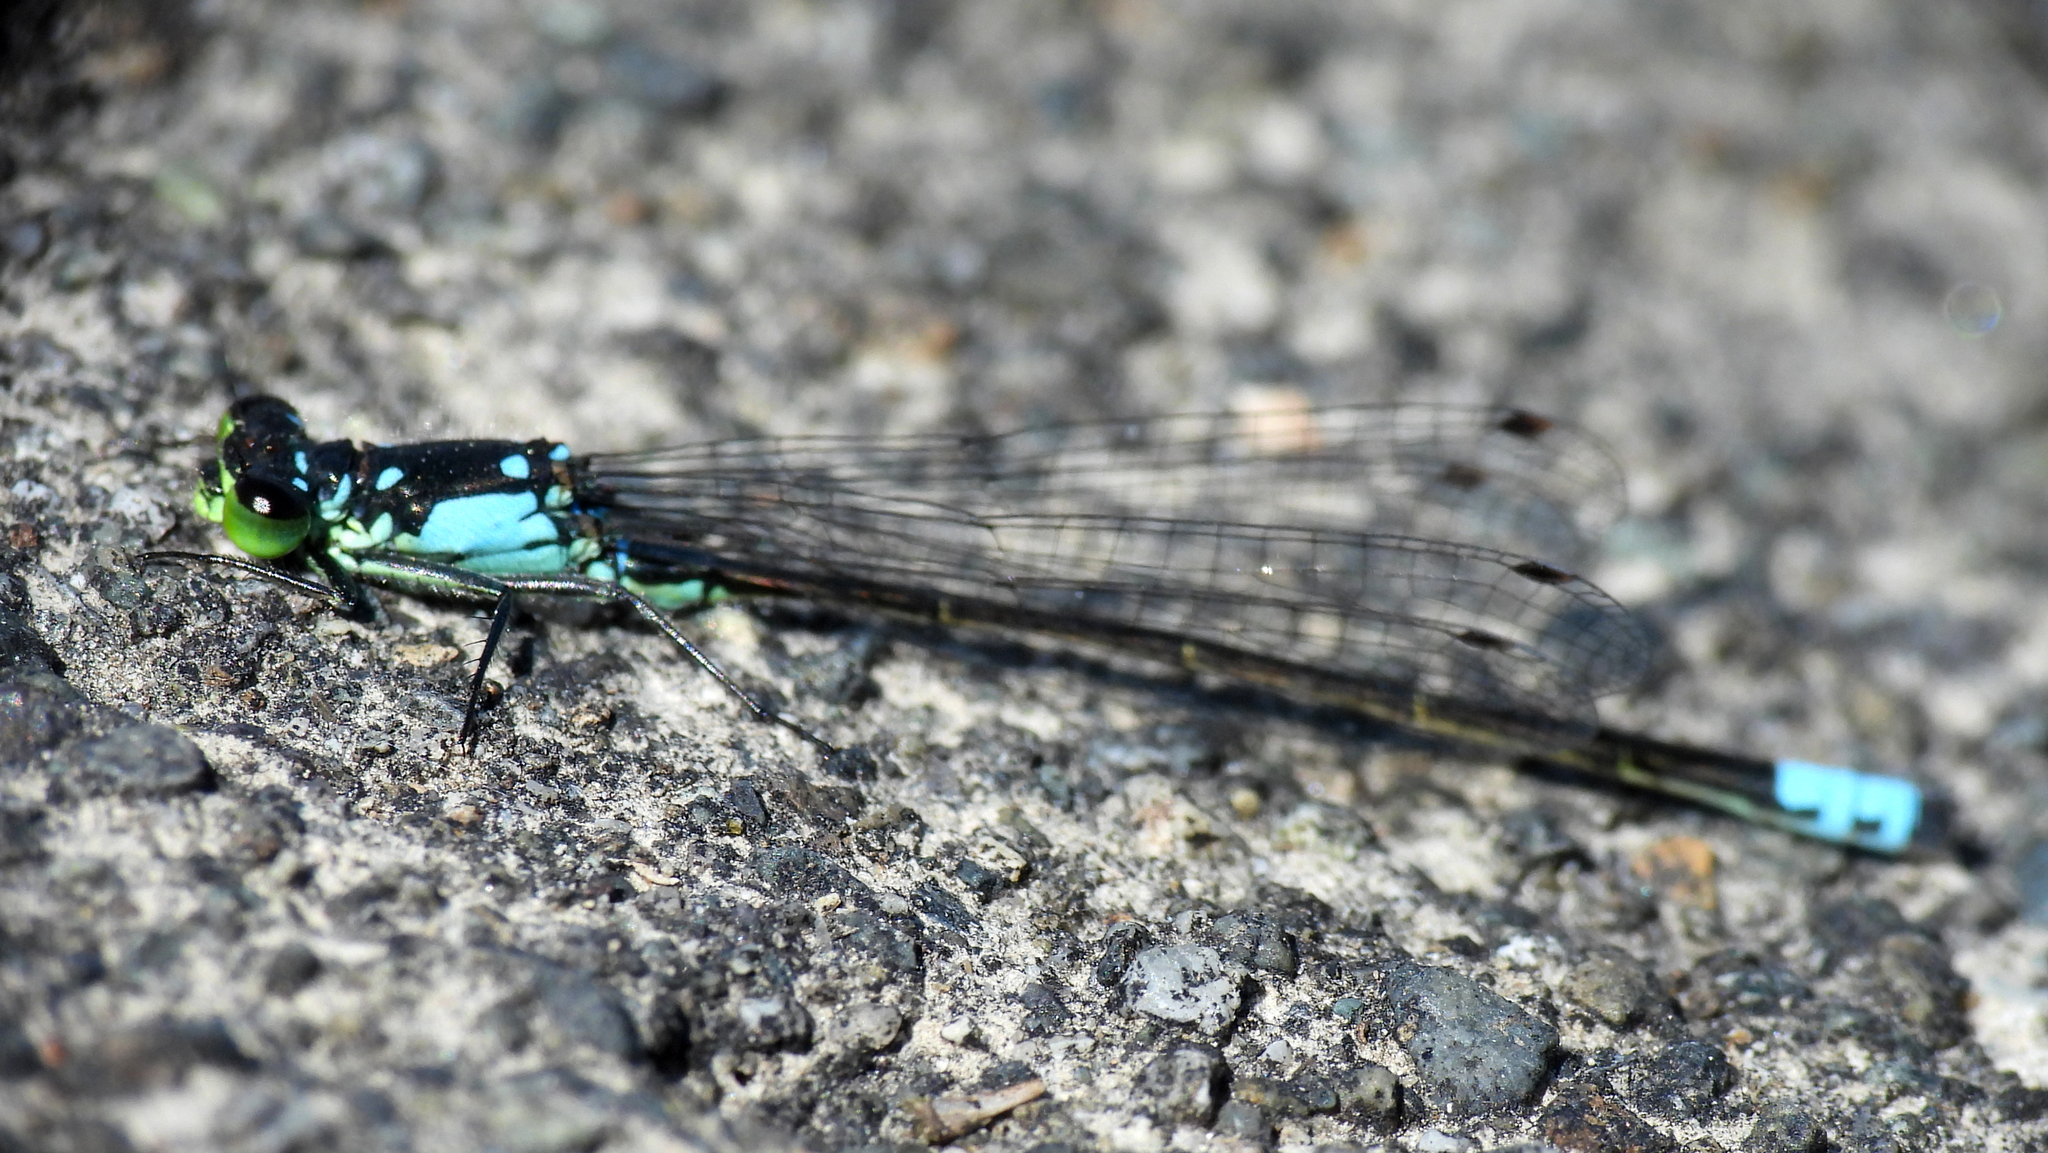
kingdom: Animalia
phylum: Arthropoda
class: Insecta
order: Odonata
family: Coenagrionidae
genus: Ischnura
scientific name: Ischnura cervula
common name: Pacific forktail
